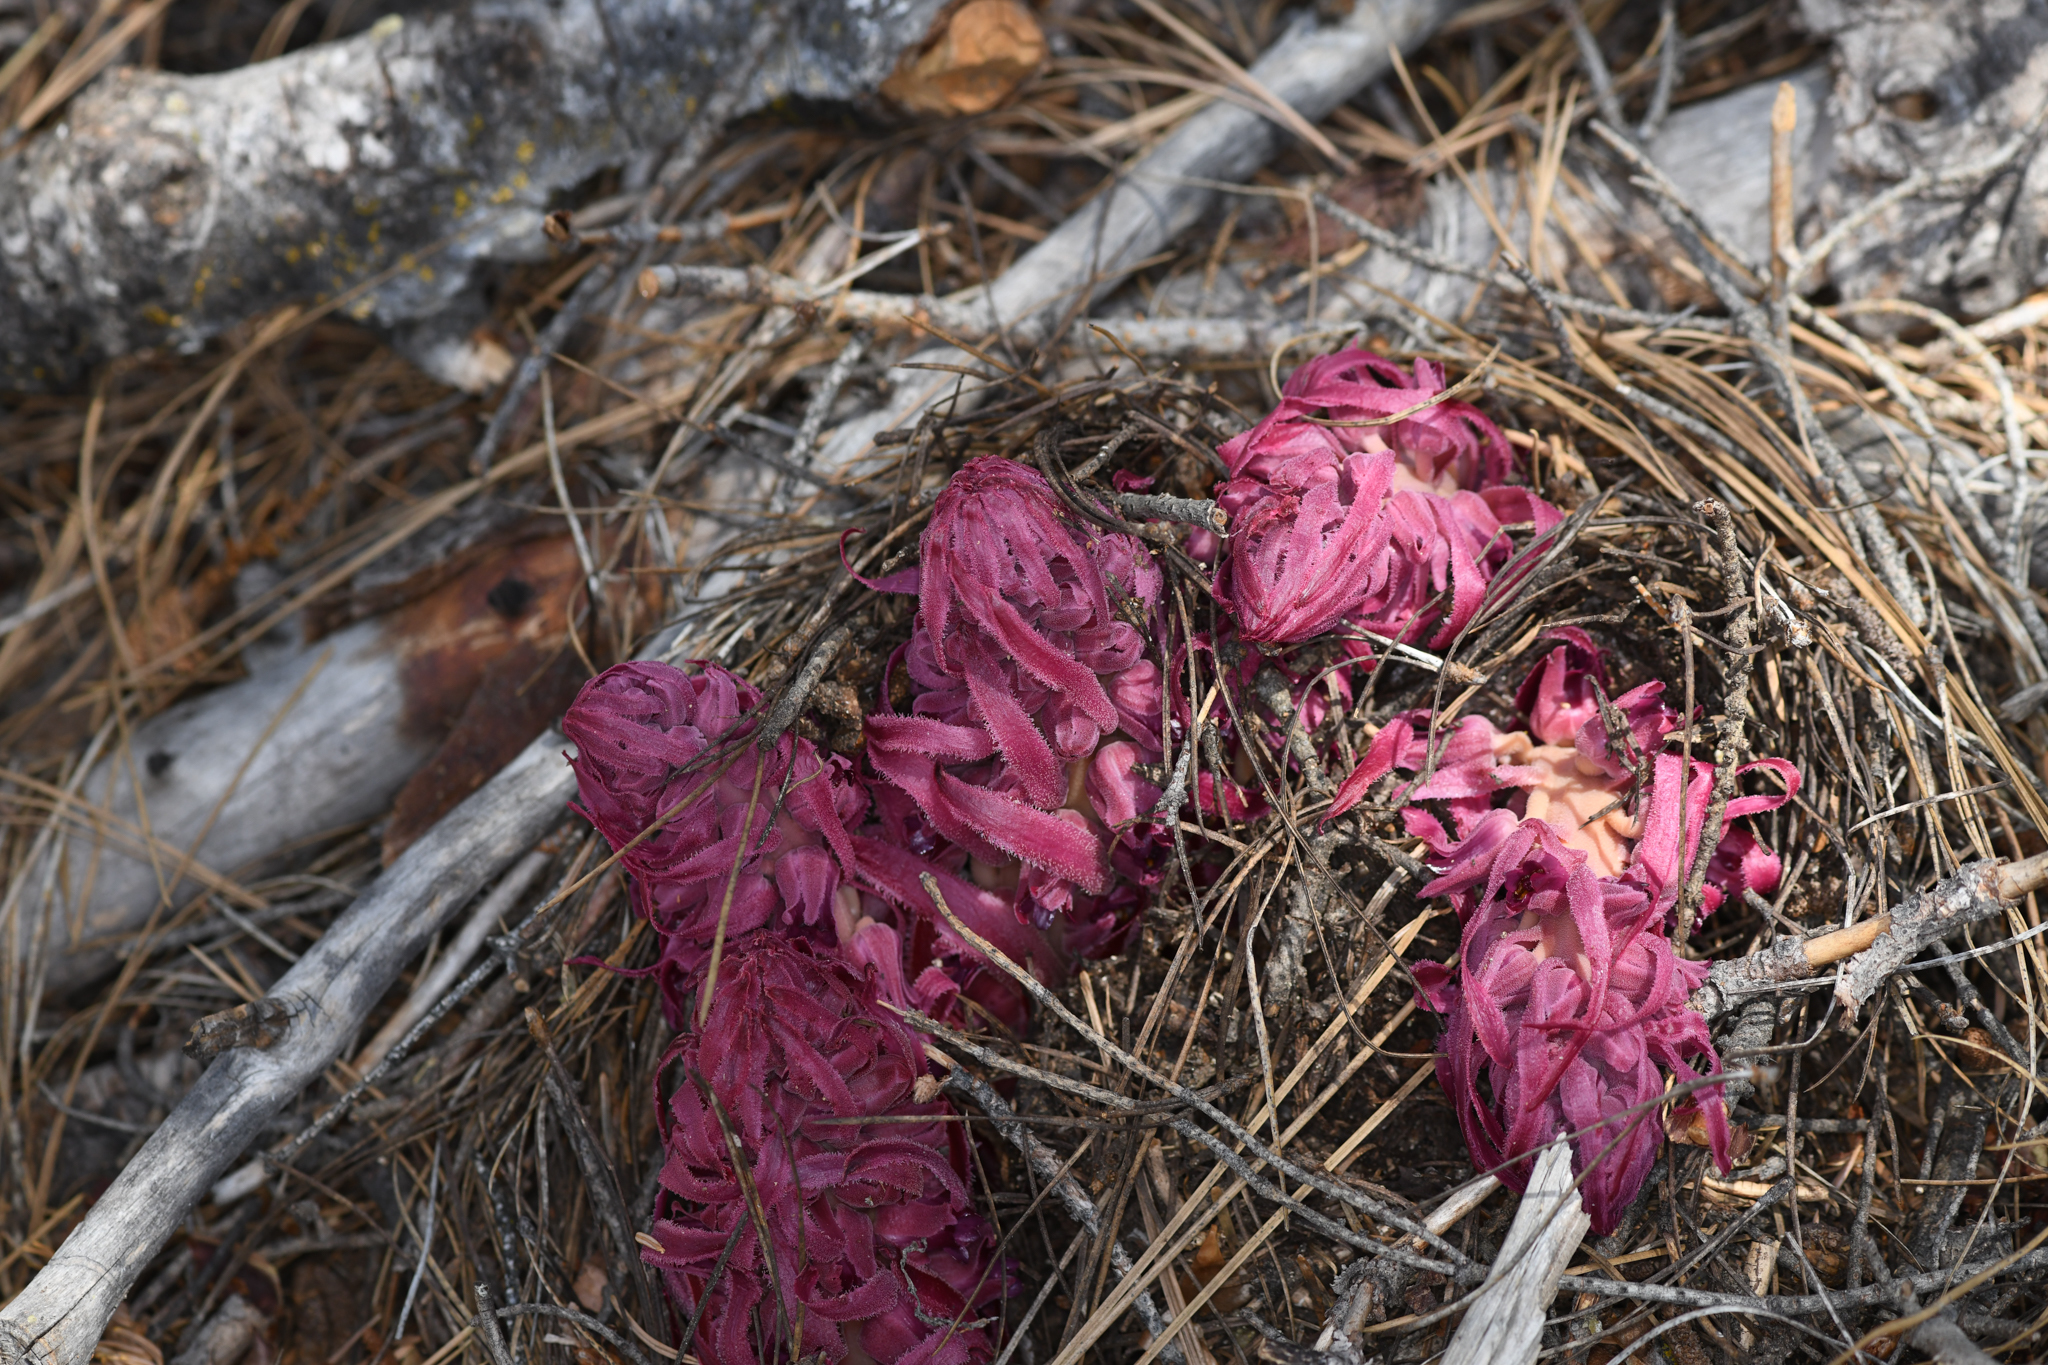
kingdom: Plantae
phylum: Tracheophyta
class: Magnoliopsida
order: Ericales
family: Ericaceae
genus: Sarcodes
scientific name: Sarcodes sanguinea
